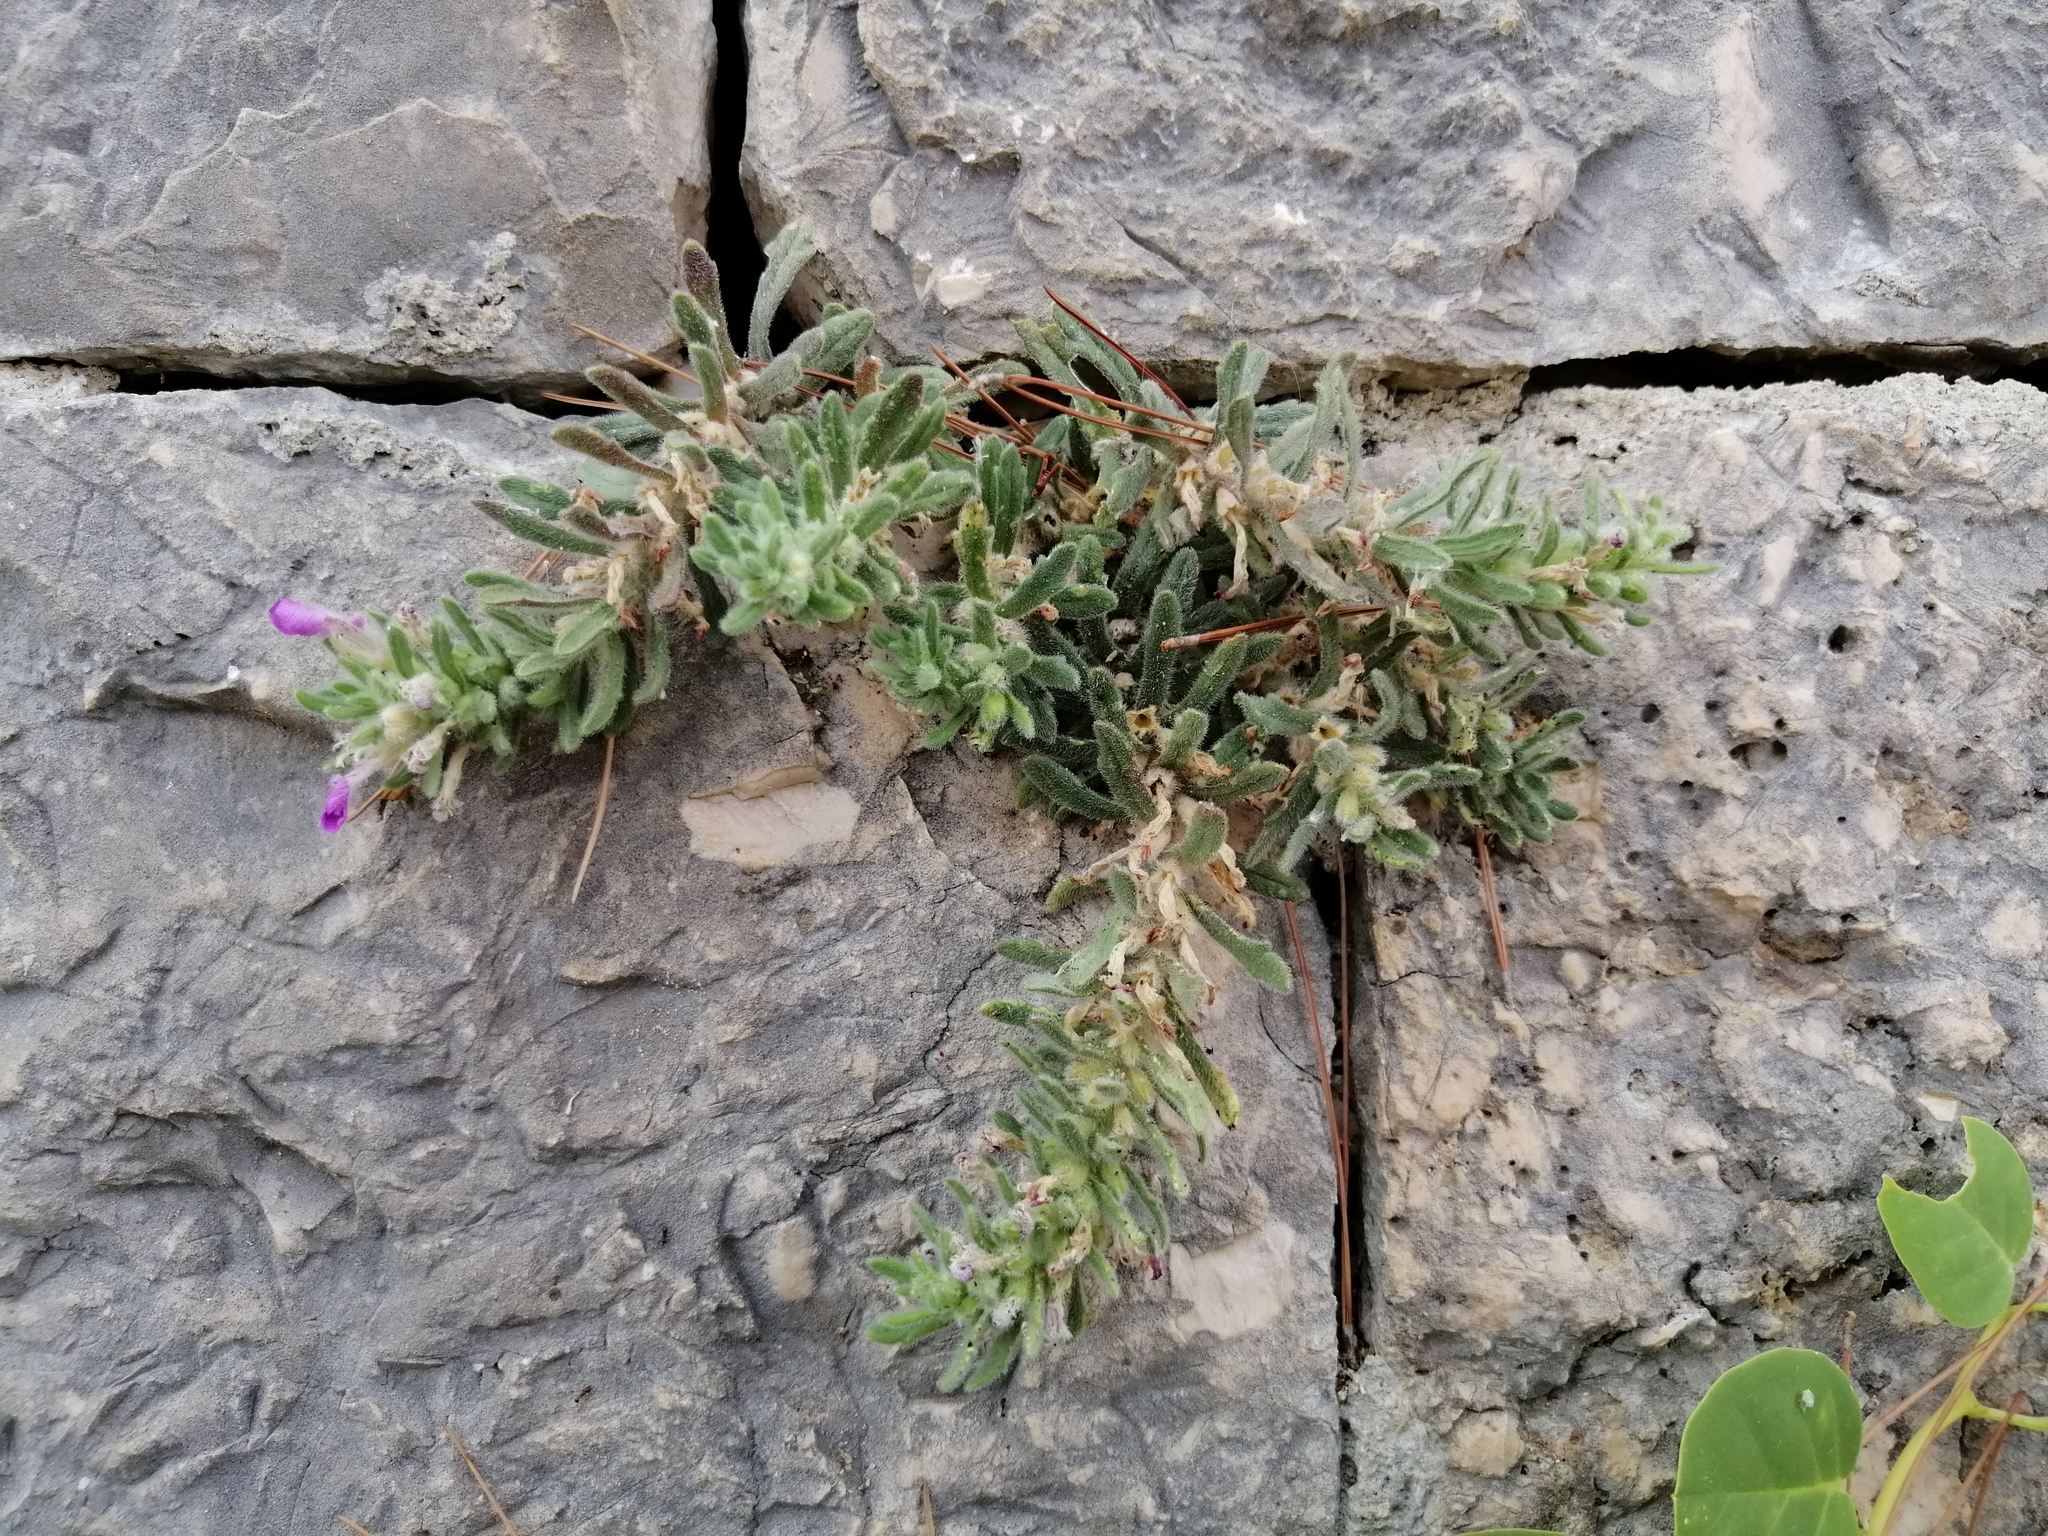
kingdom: Plantae
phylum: Tracheophyta
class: Magnoliopsida
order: Lamiales
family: Lamiaceae
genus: Ajuga
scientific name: Ajuga iva
